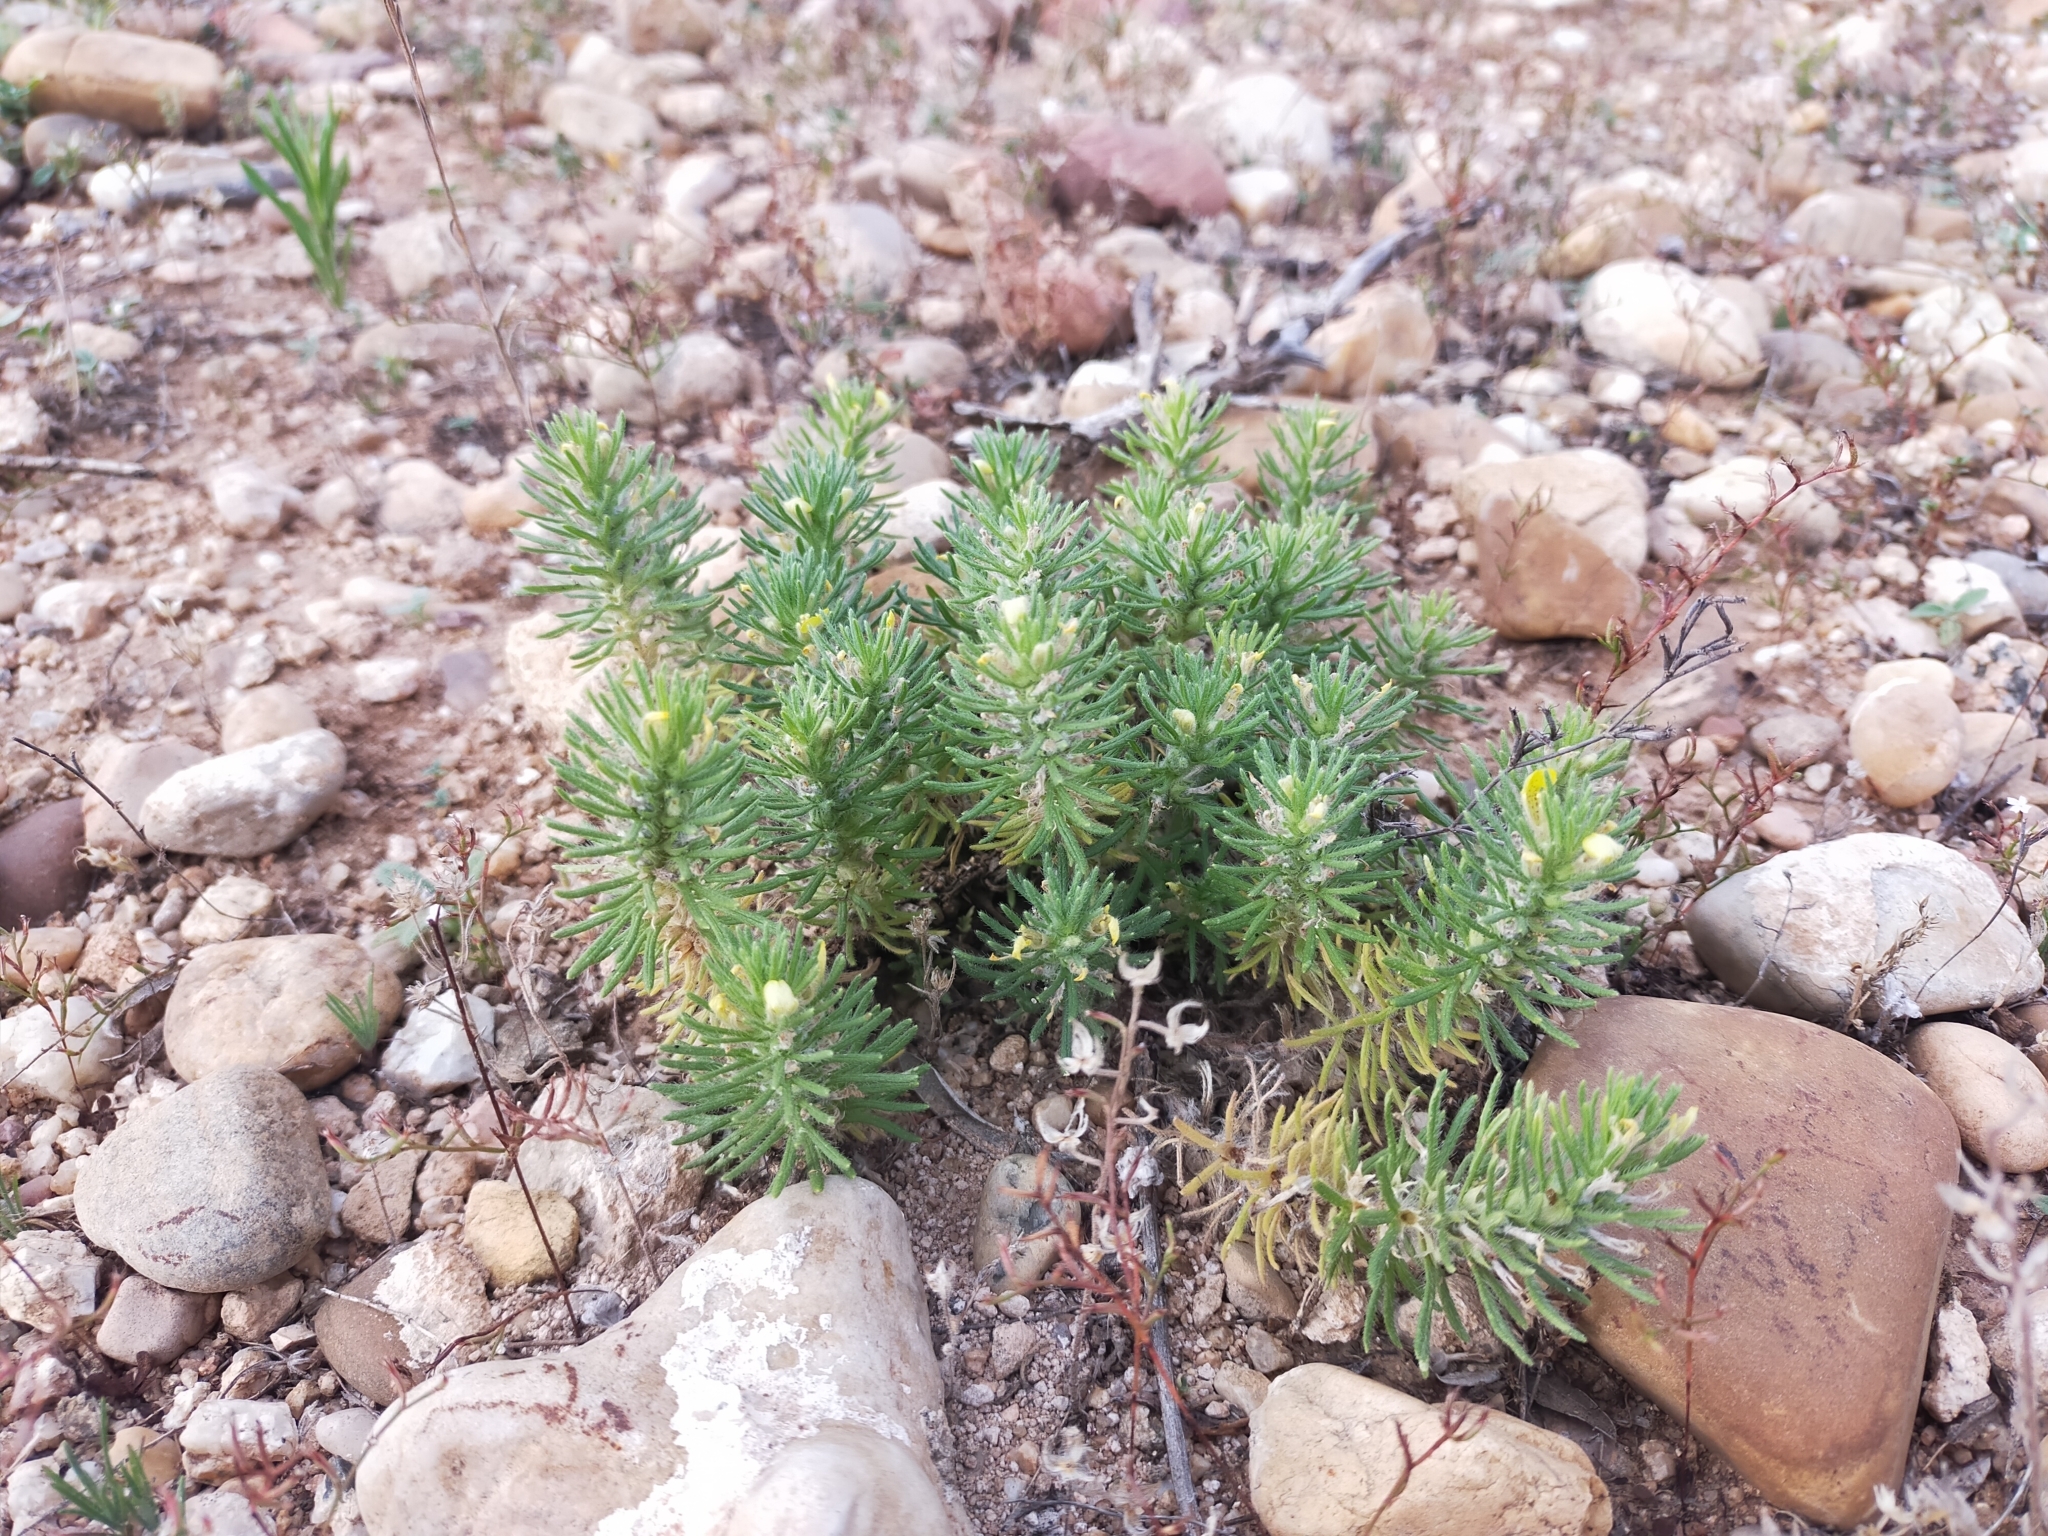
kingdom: Plantae
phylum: Tracheophyta
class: Magnoliopsida
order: Lamiales
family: Lamiaceae
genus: Ajuga
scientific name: Ajuga chamaepitys
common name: Ground-pine
